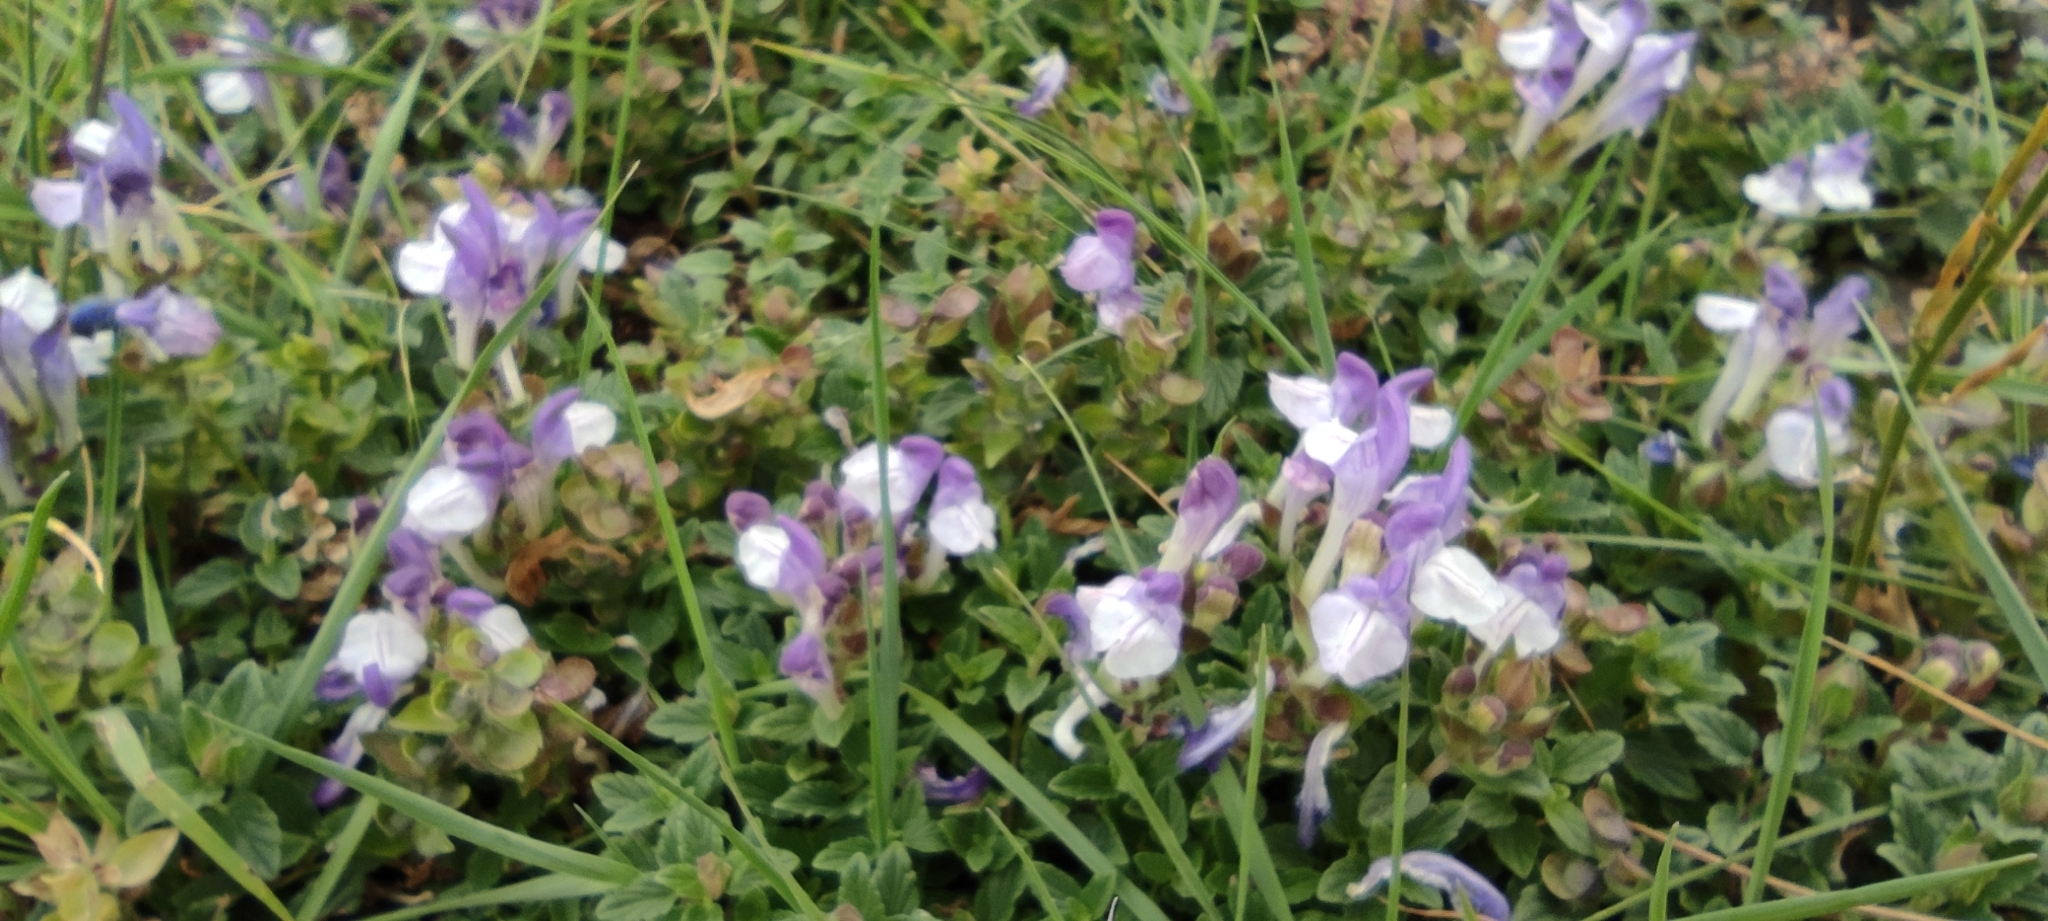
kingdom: Plantae
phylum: Tracheophyta
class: Magnoliopsida
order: Lamiales
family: Lamiaceae
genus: Scutellaria
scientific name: Scutellaria alpina
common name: Alpine scullcap
